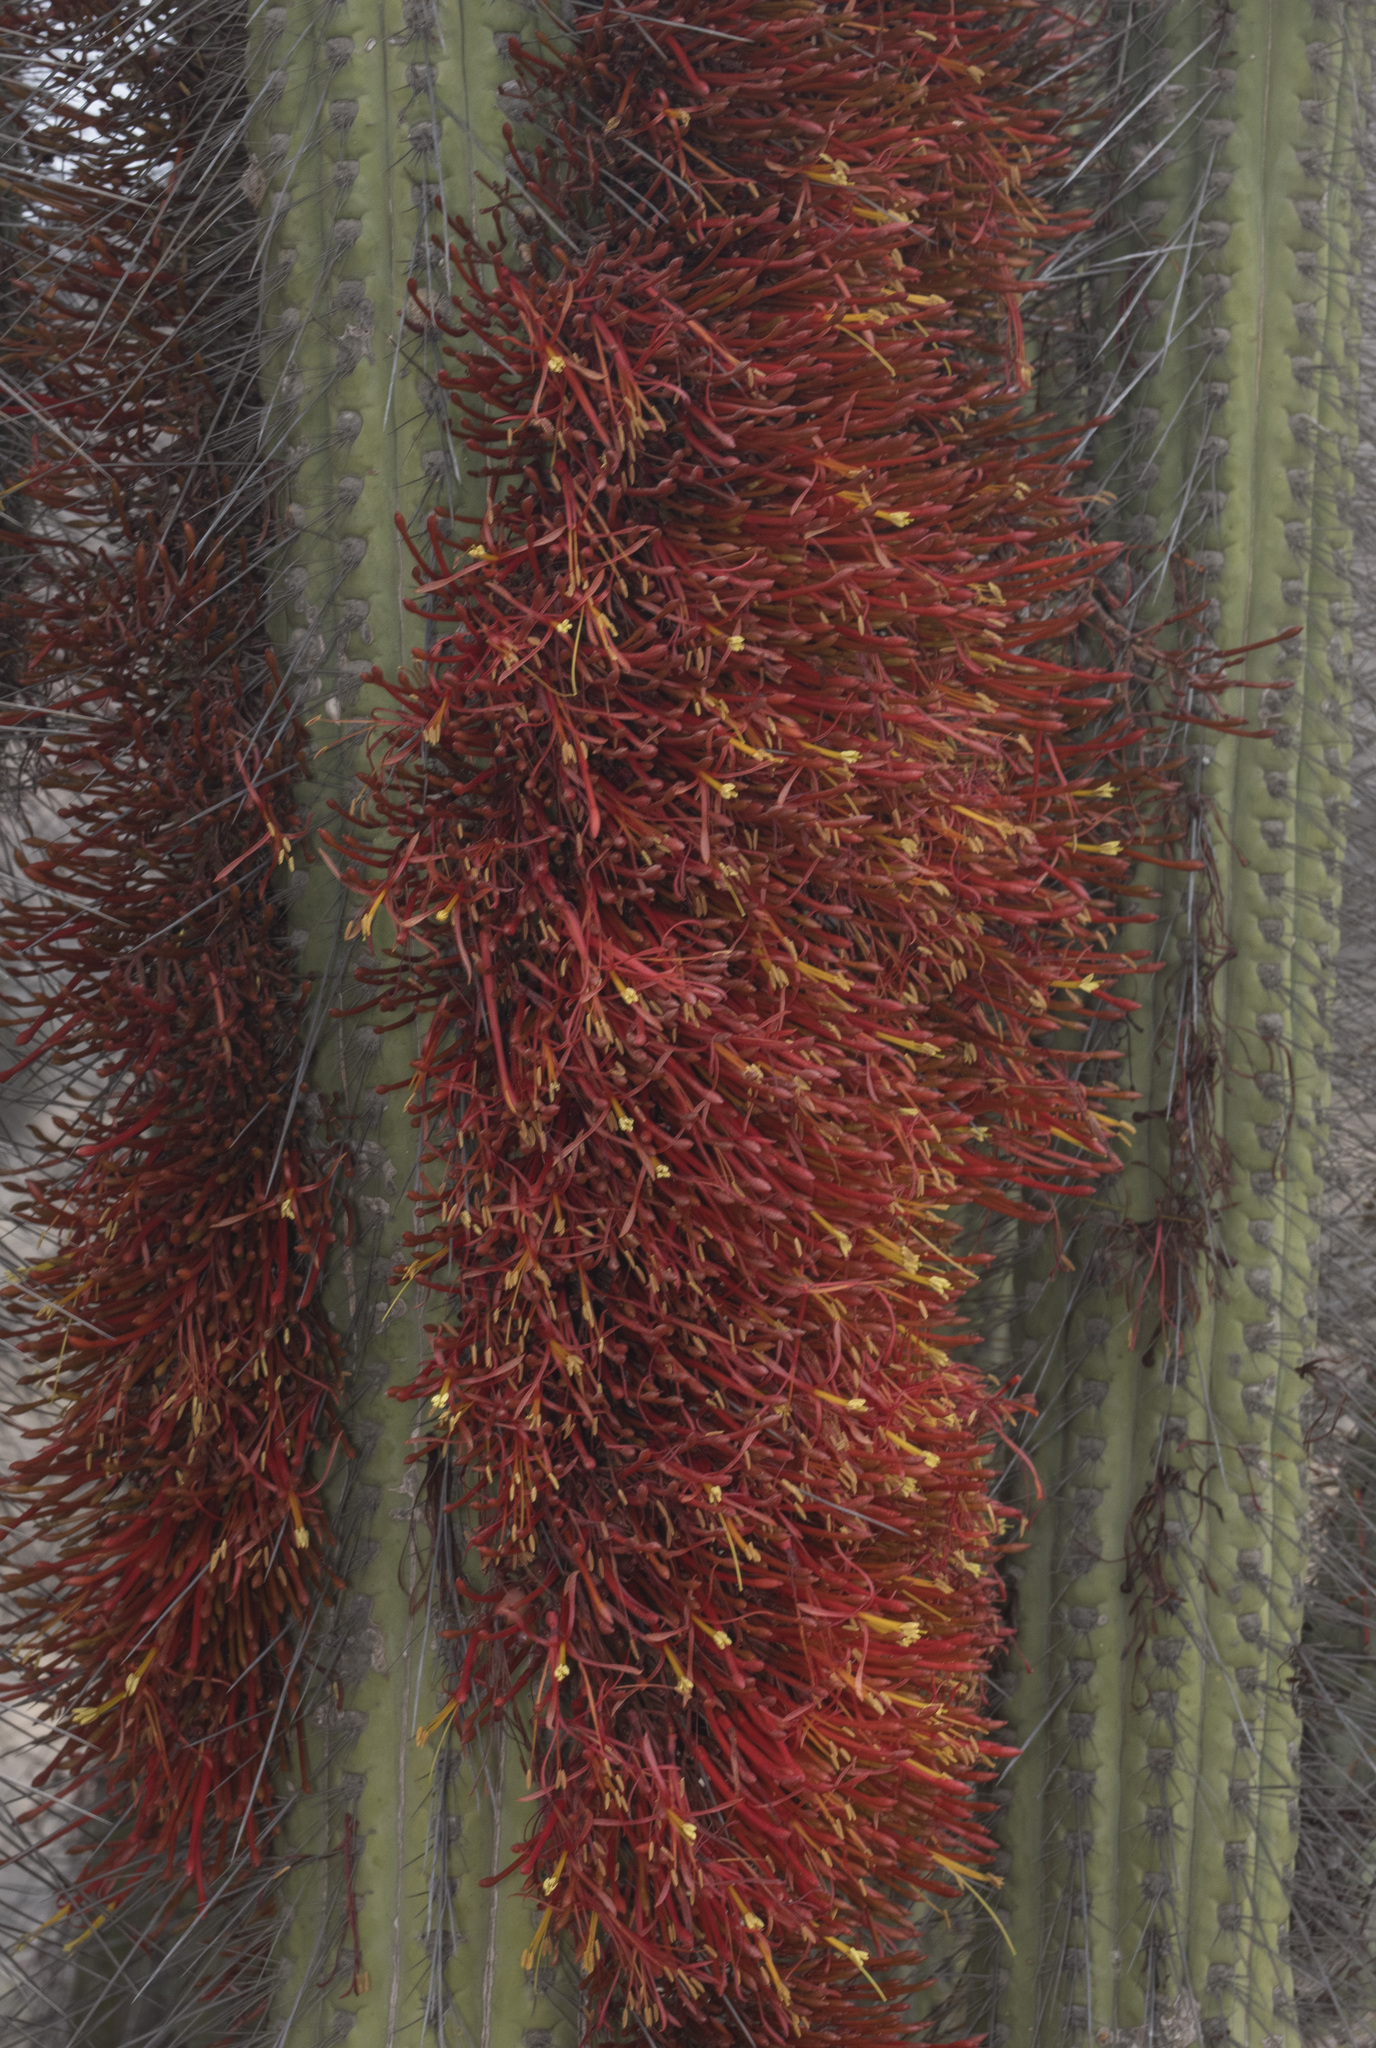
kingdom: Plantae
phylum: Tracheophyta
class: Magnoliopsida
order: Santalales
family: Loranthaceae
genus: Tristerix
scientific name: Tristerix aphyllus
